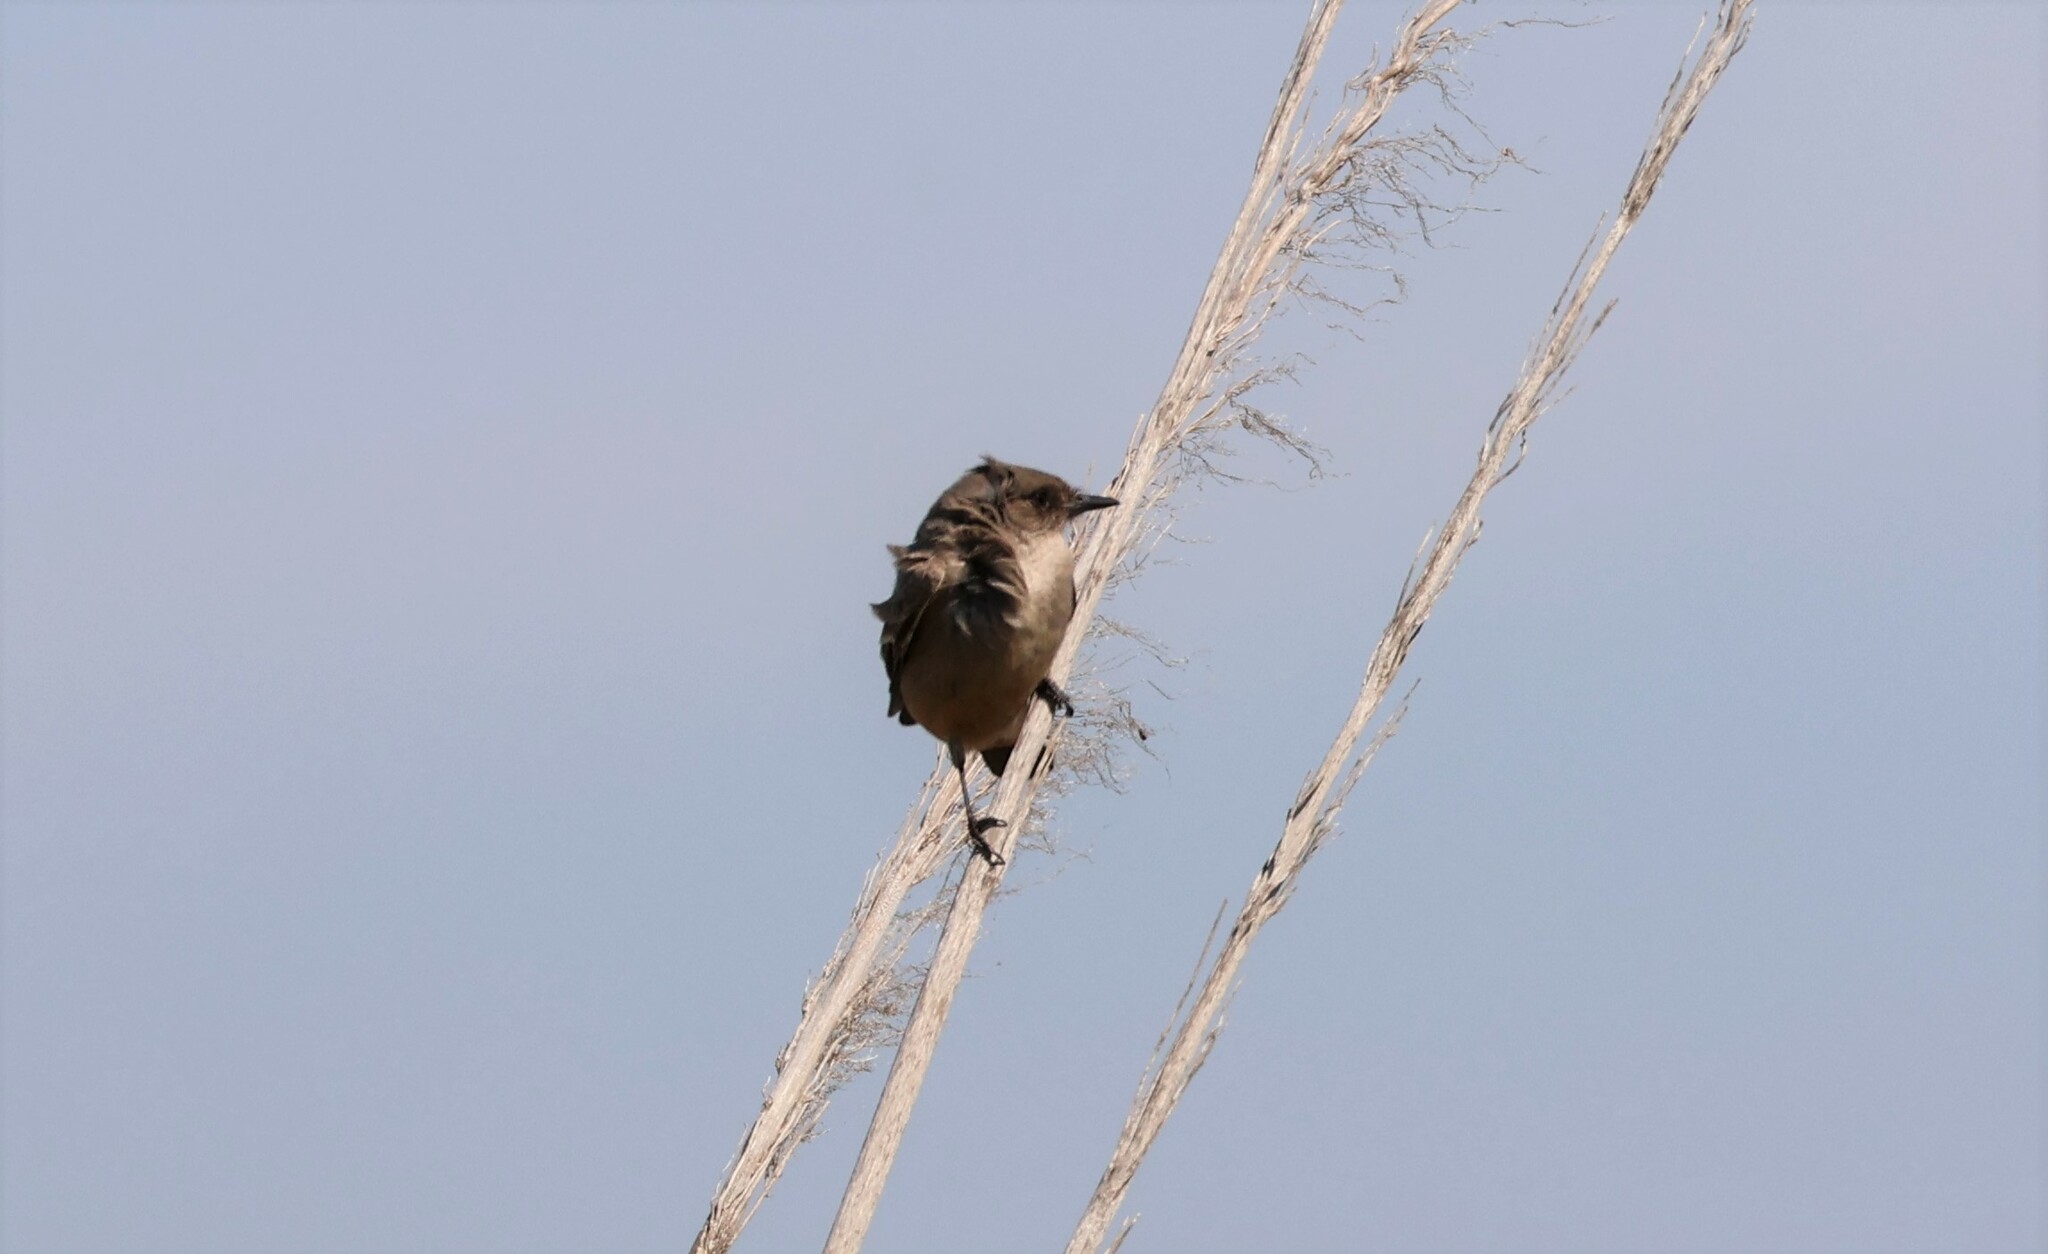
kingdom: Animalia
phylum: Chordata
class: Aves
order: Passeriformes
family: Tyrannidae
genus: Sayornis
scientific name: Sayornis saya
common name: Say's phoebe
